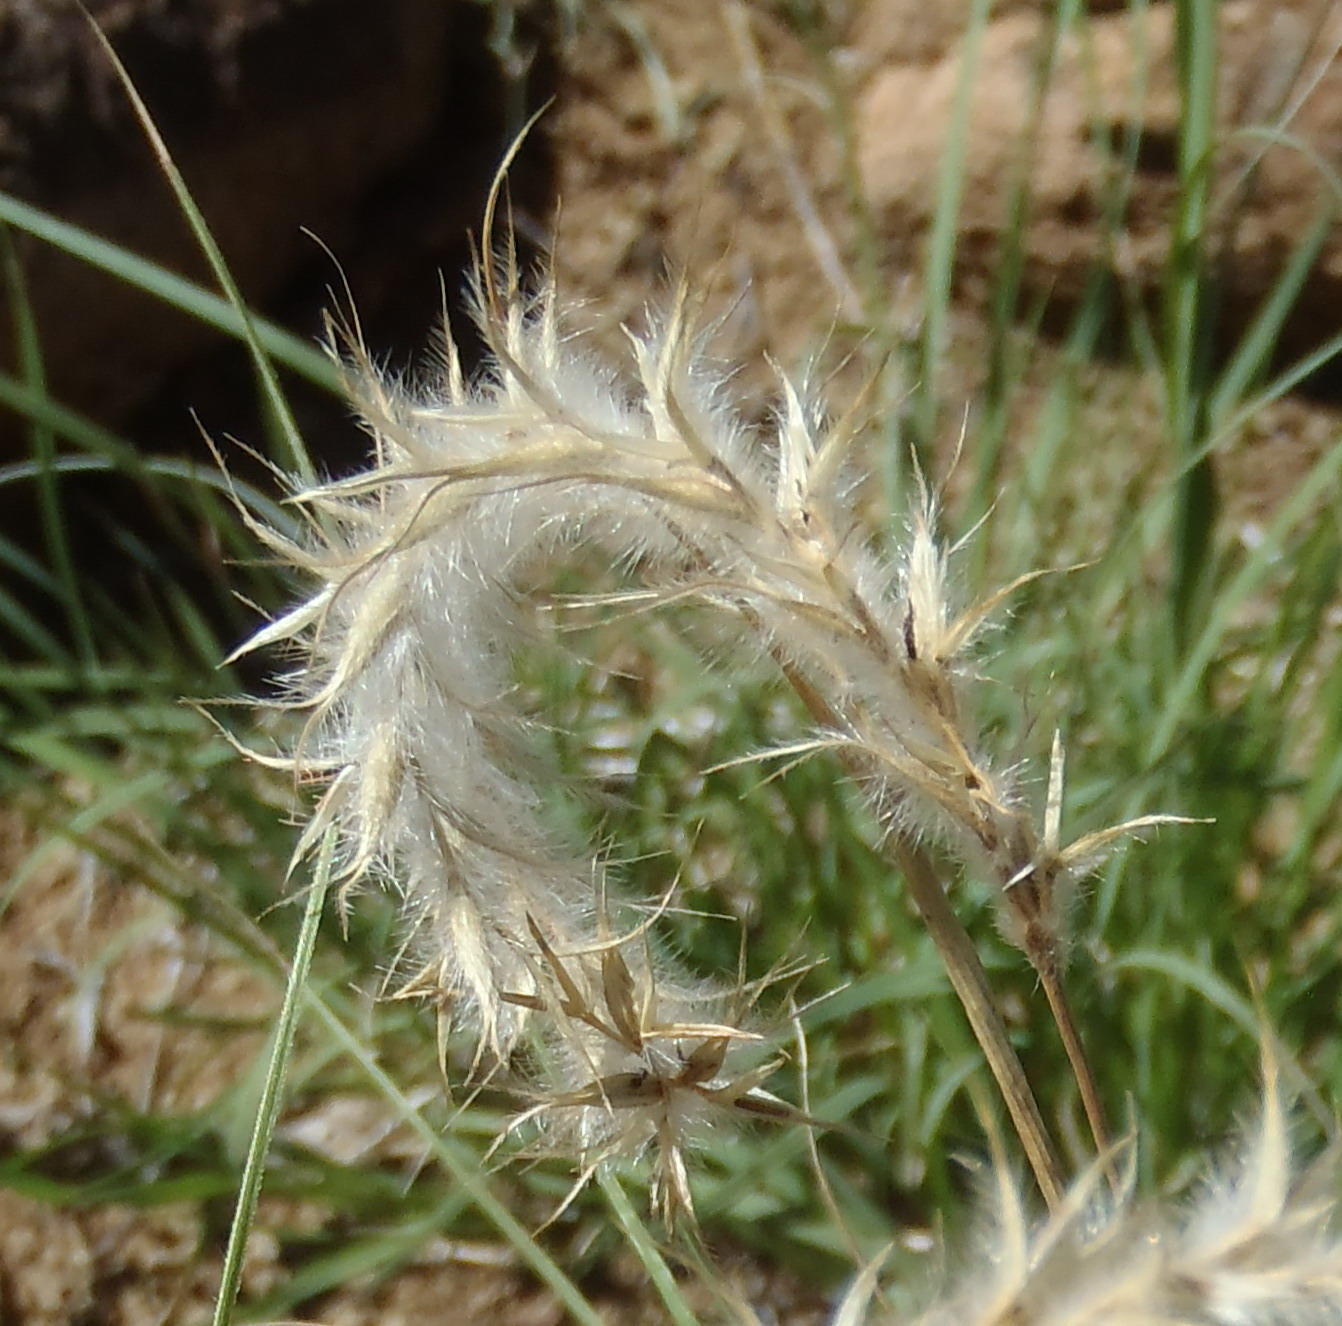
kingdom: Plantae
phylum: Tracheophyta
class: Liliopsida
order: Poales
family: Poaceae
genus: Elionurus
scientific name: Elionurus muticus
